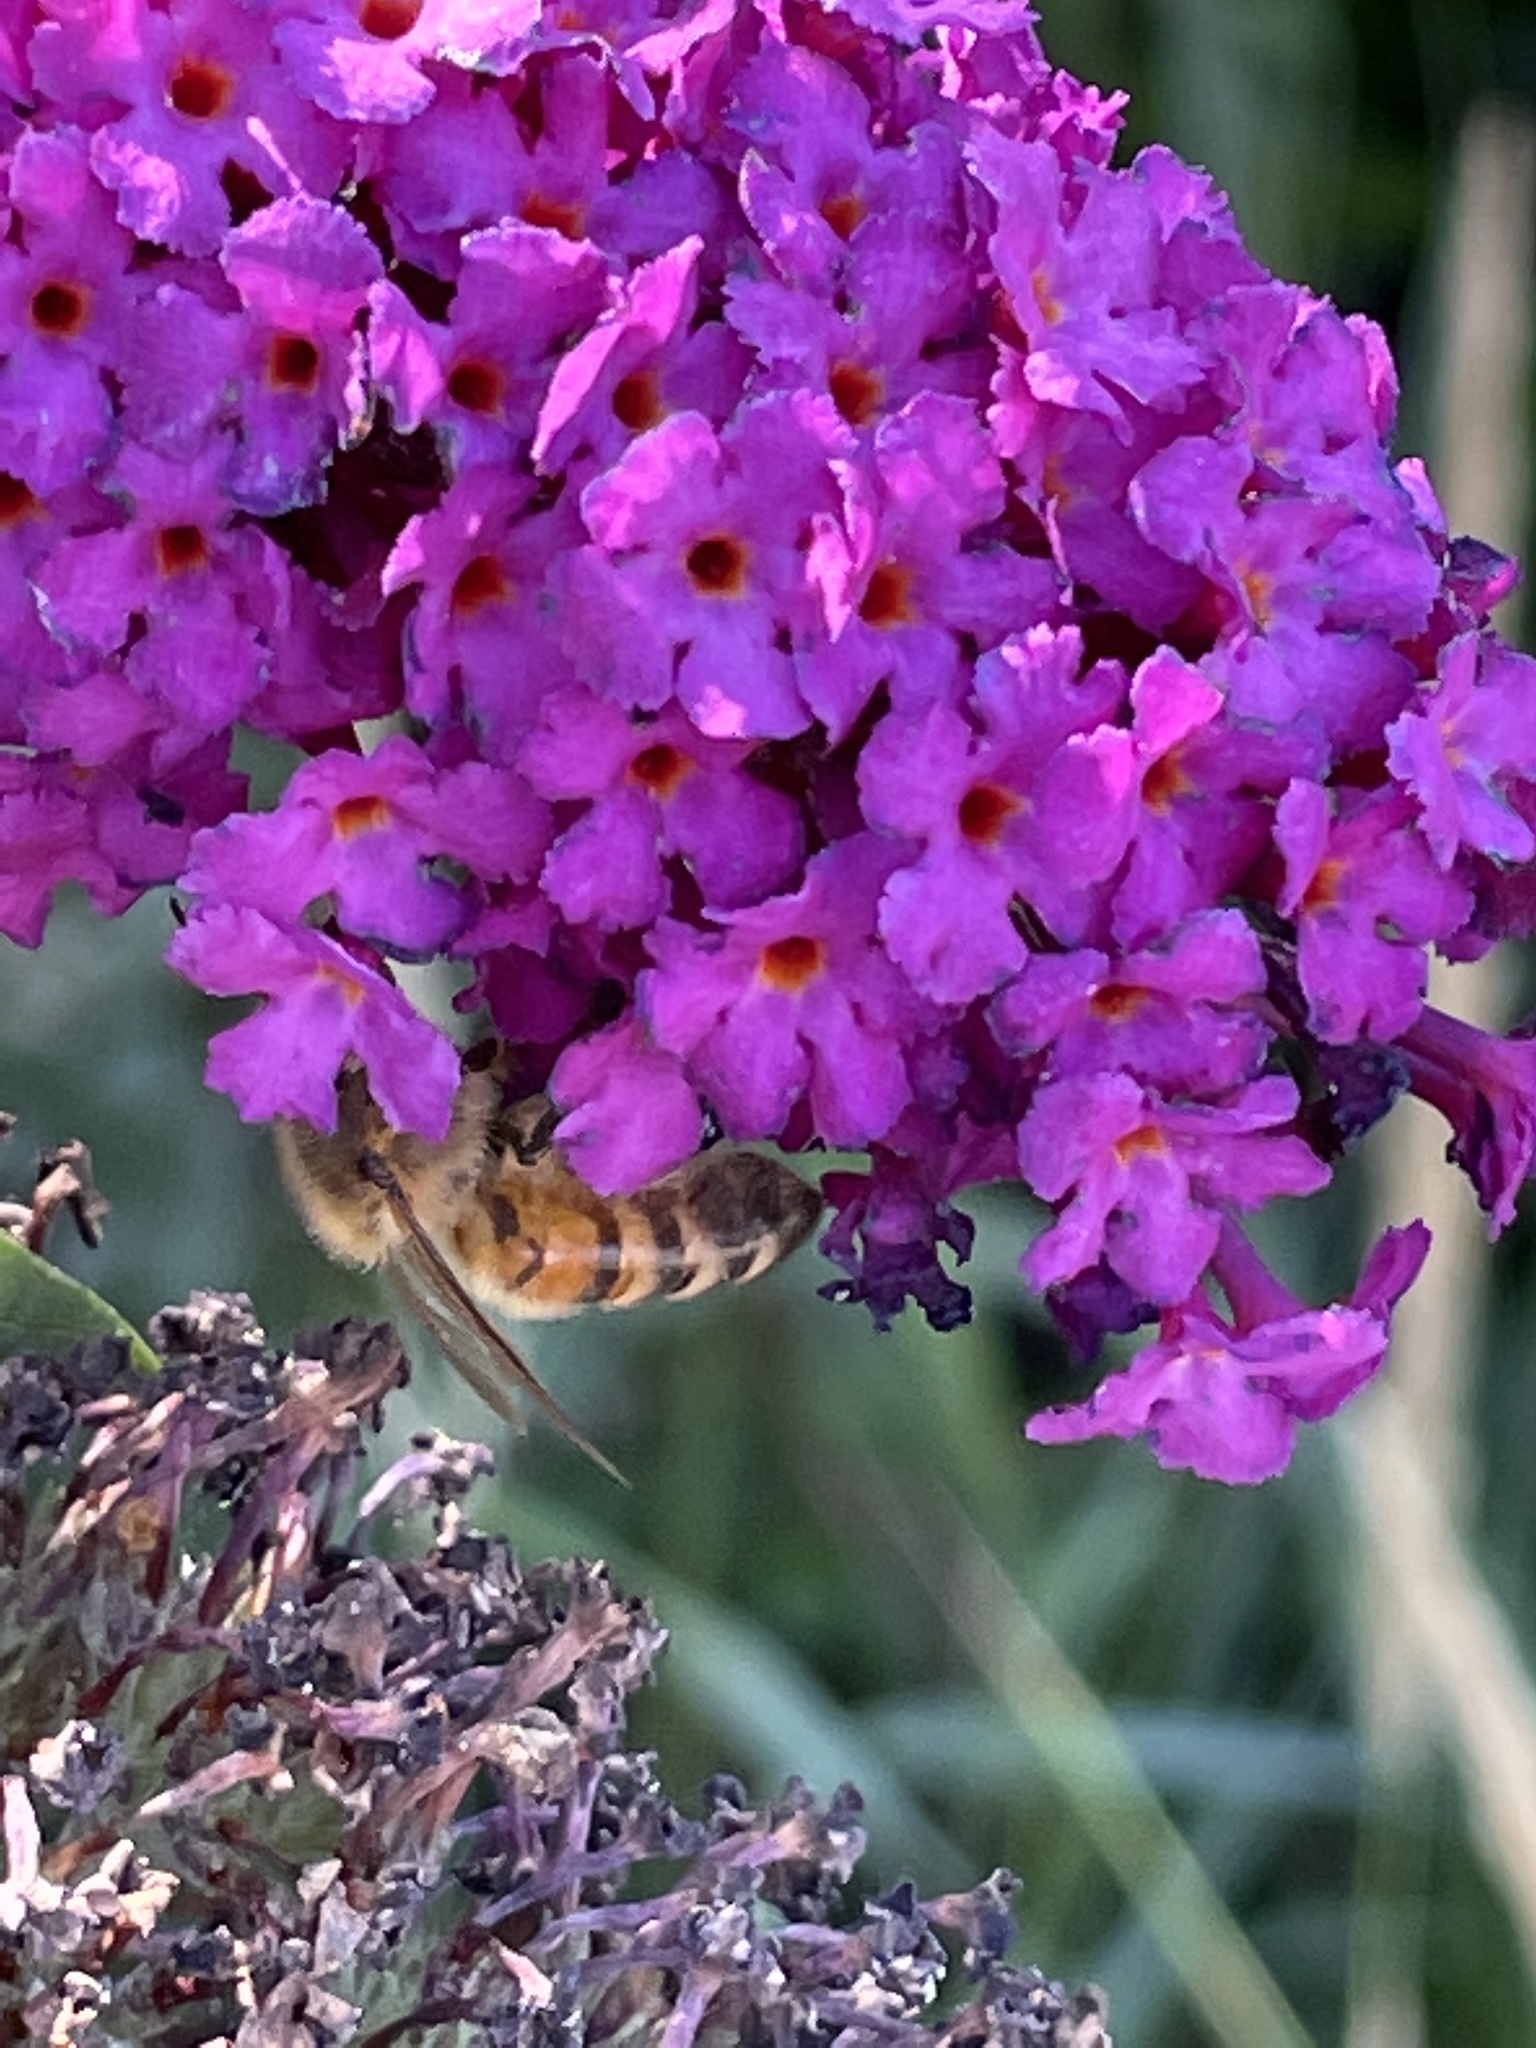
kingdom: Animalia
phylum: Arthropoda
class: Insecta
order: Hymenoptera
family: Apidae
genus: Apis
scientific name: Apis mellifera
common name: Honey bee
